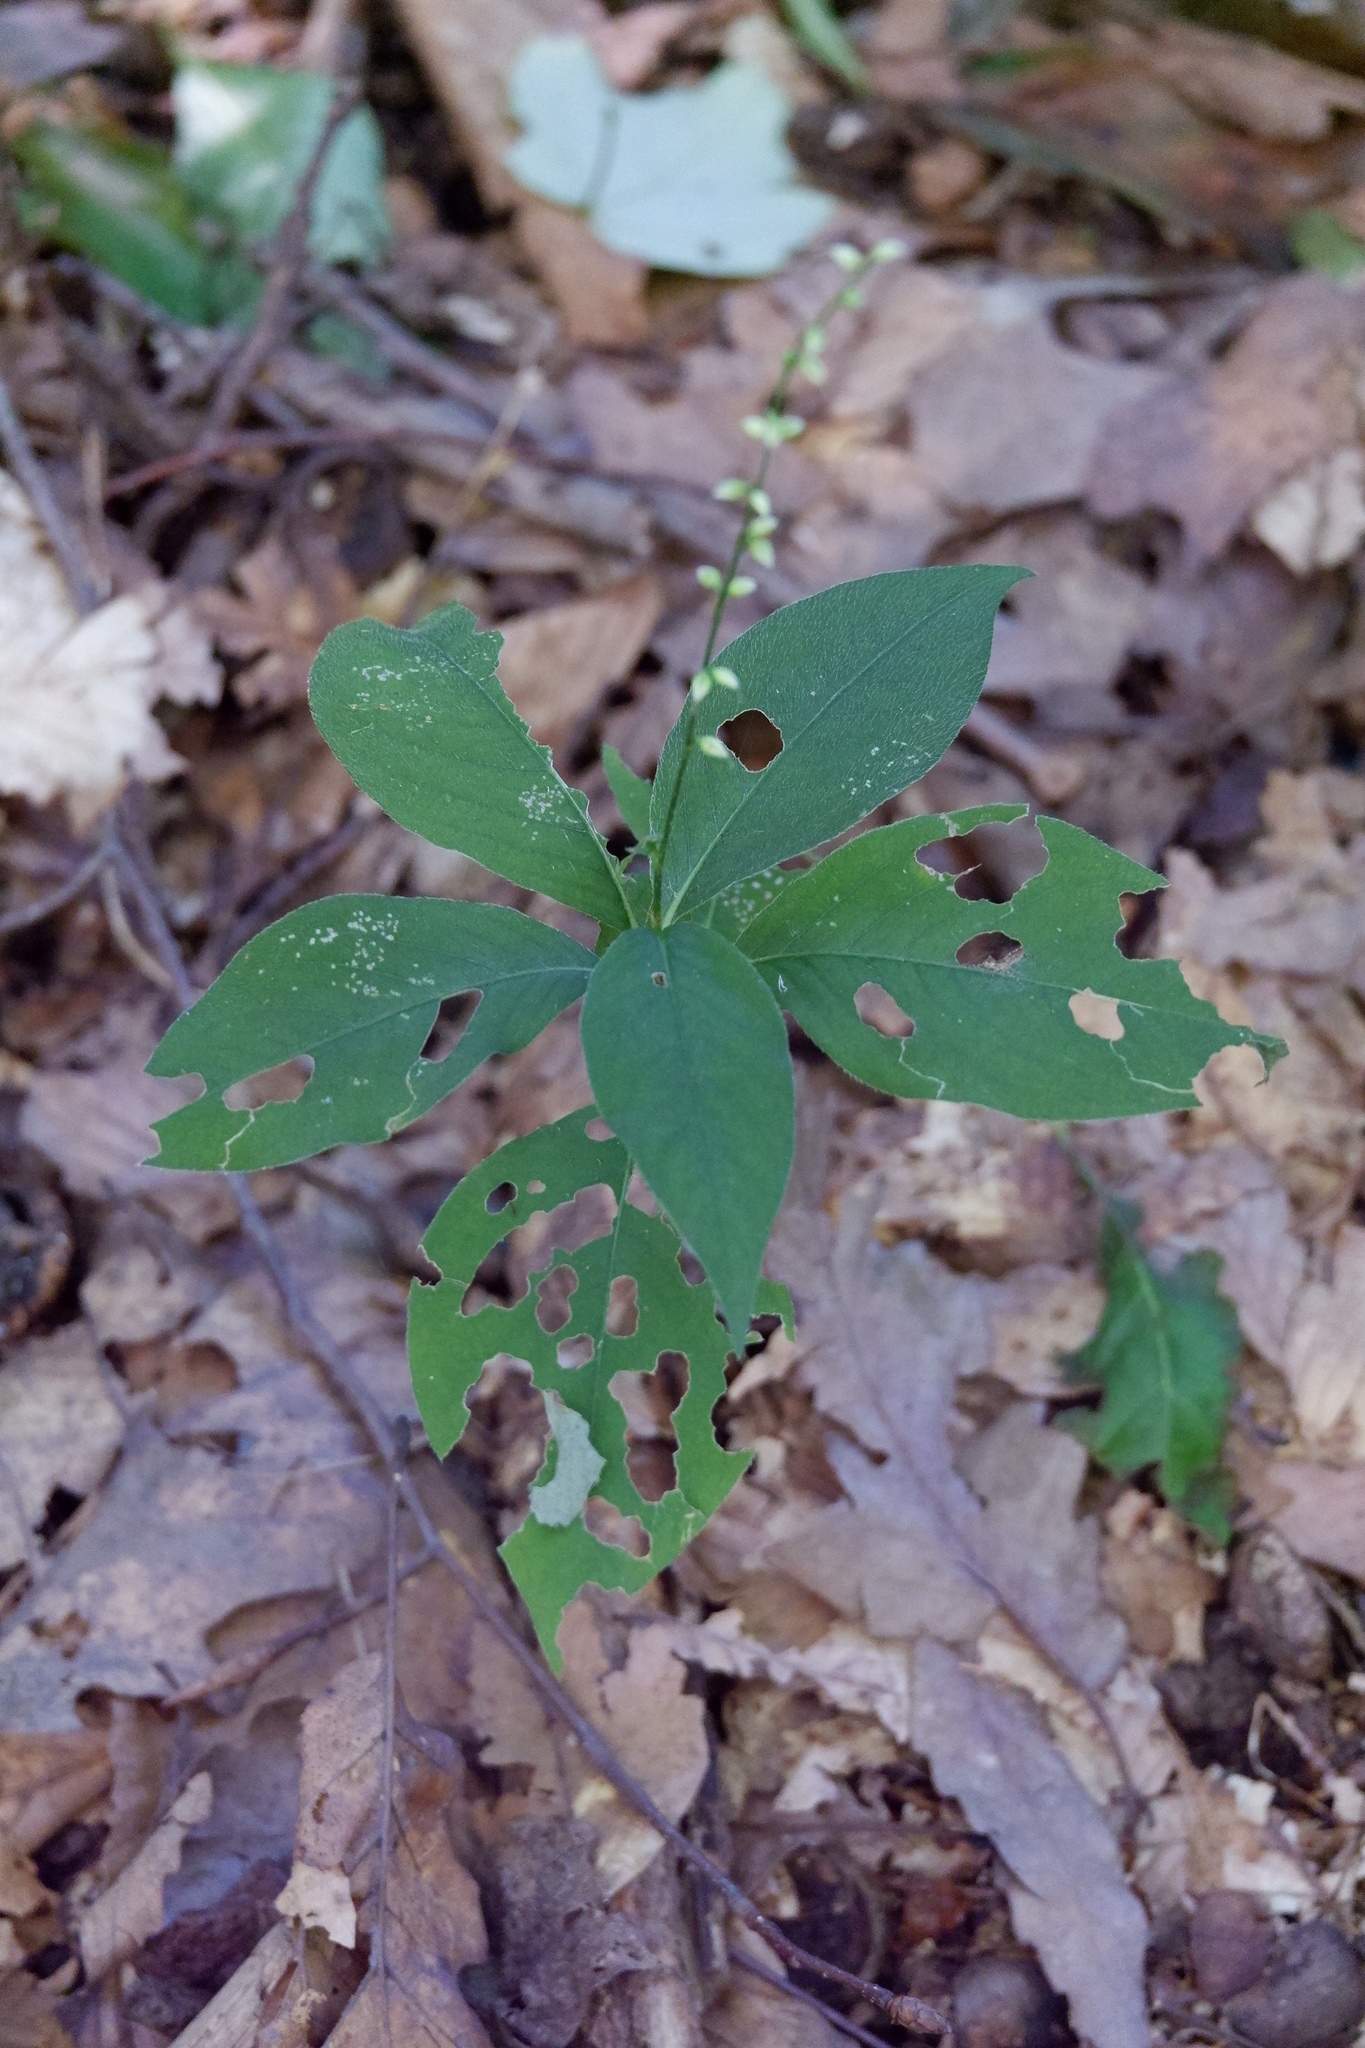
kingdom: Plantae
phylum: Tracheophyta
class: Magnoliopsida
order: Caryophyllales
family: Polygonaceae
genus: Persicaria
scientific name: Persicaria virginiana
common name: Jumpseed
